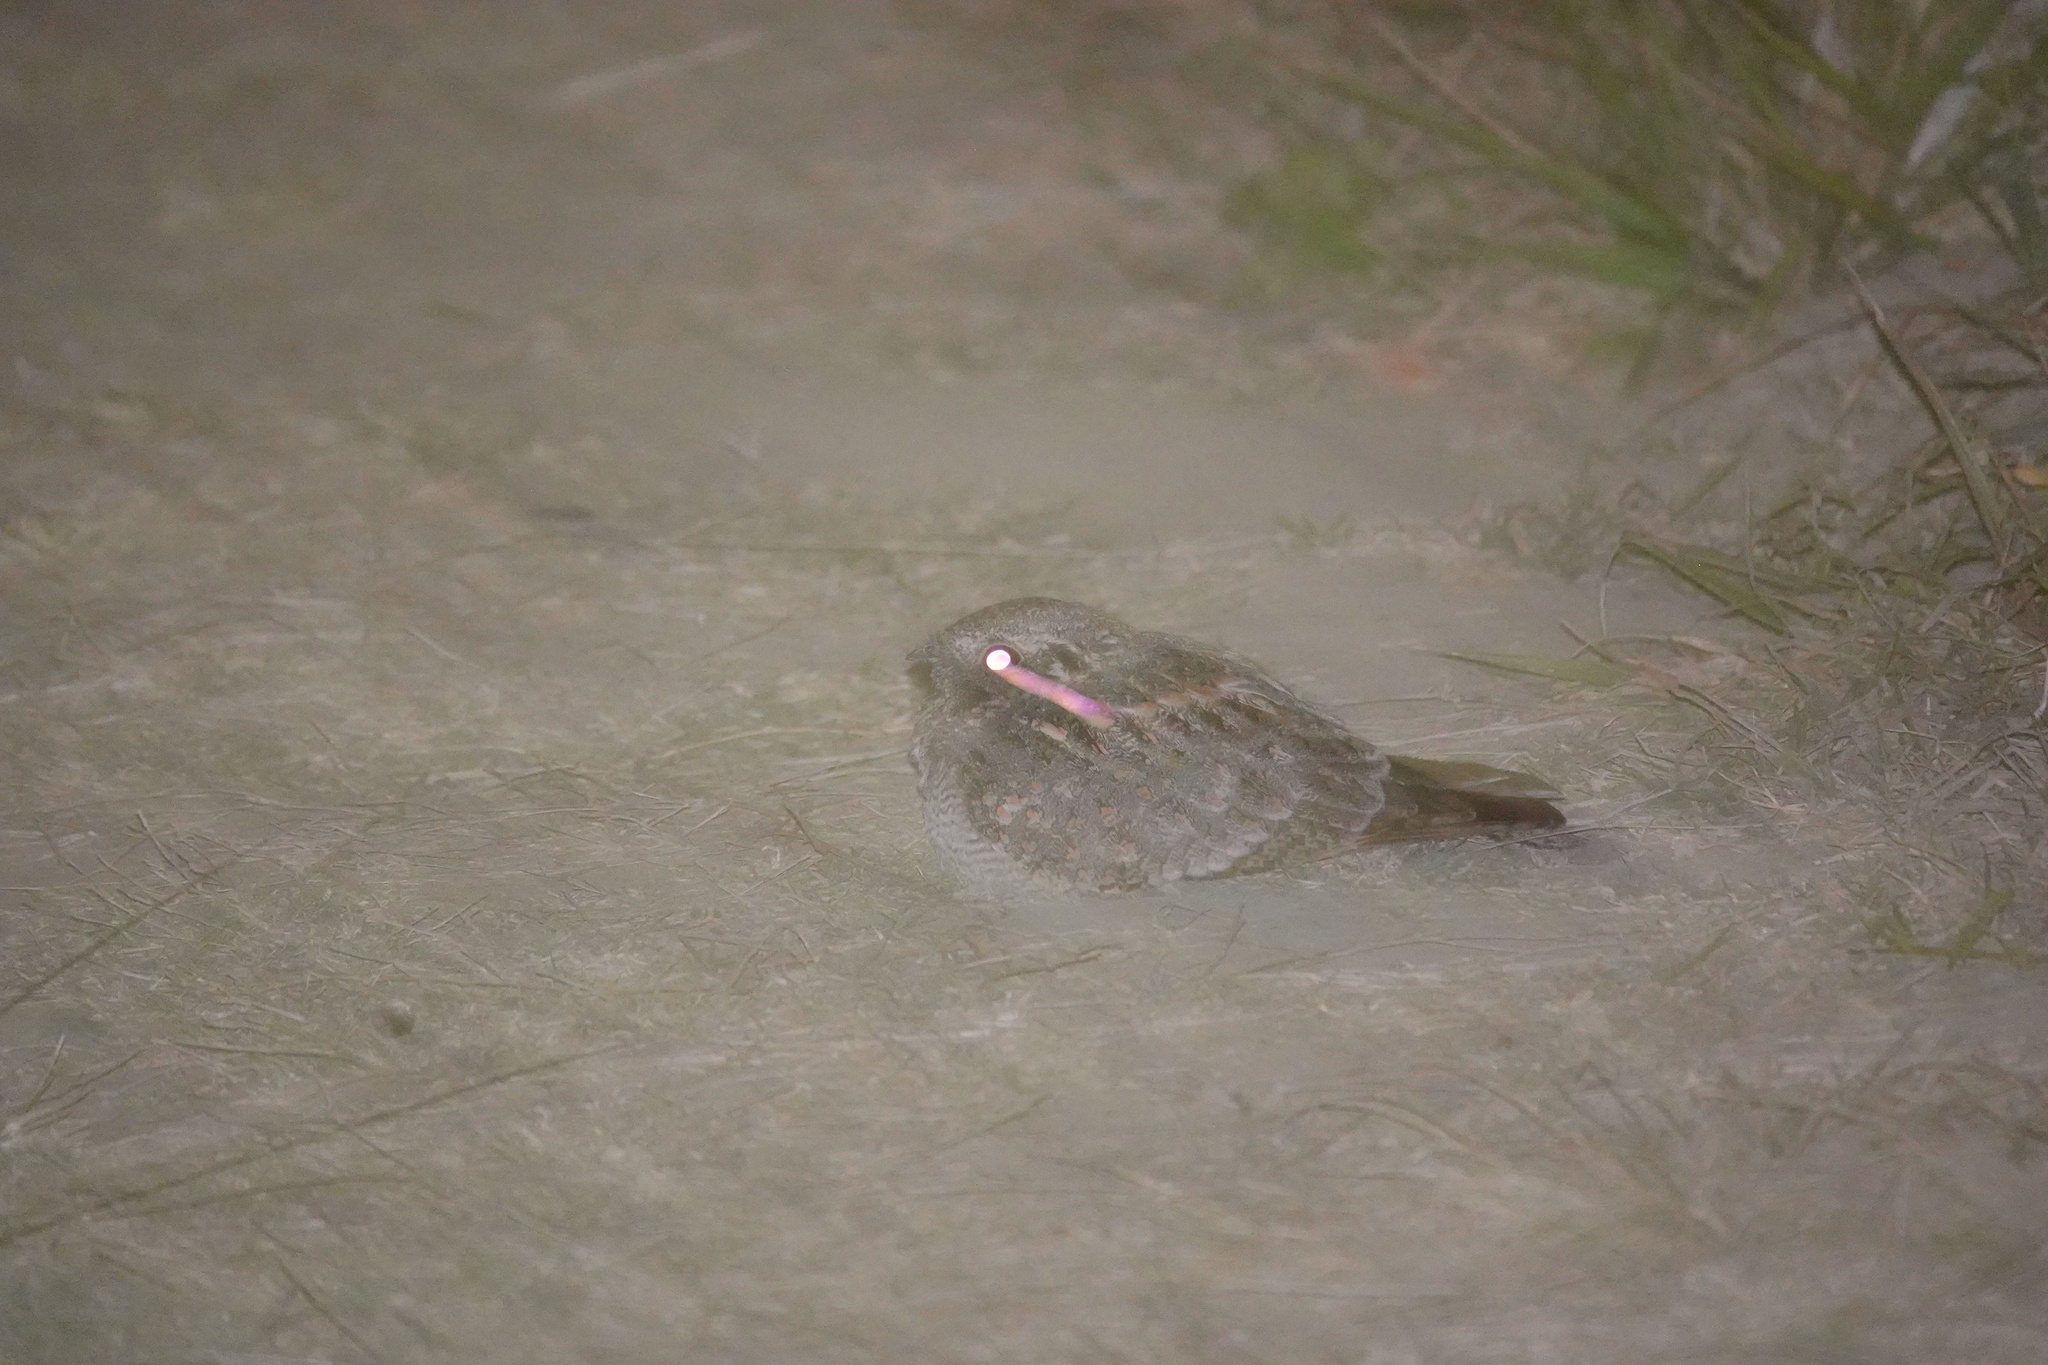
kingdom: Animalia
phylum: Chordata
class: Aves
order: Caprimulgiformes
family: Caprimulgidae
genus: Caprimulgus
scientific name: Caprimulgus affinis
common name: Savanna nightjar
